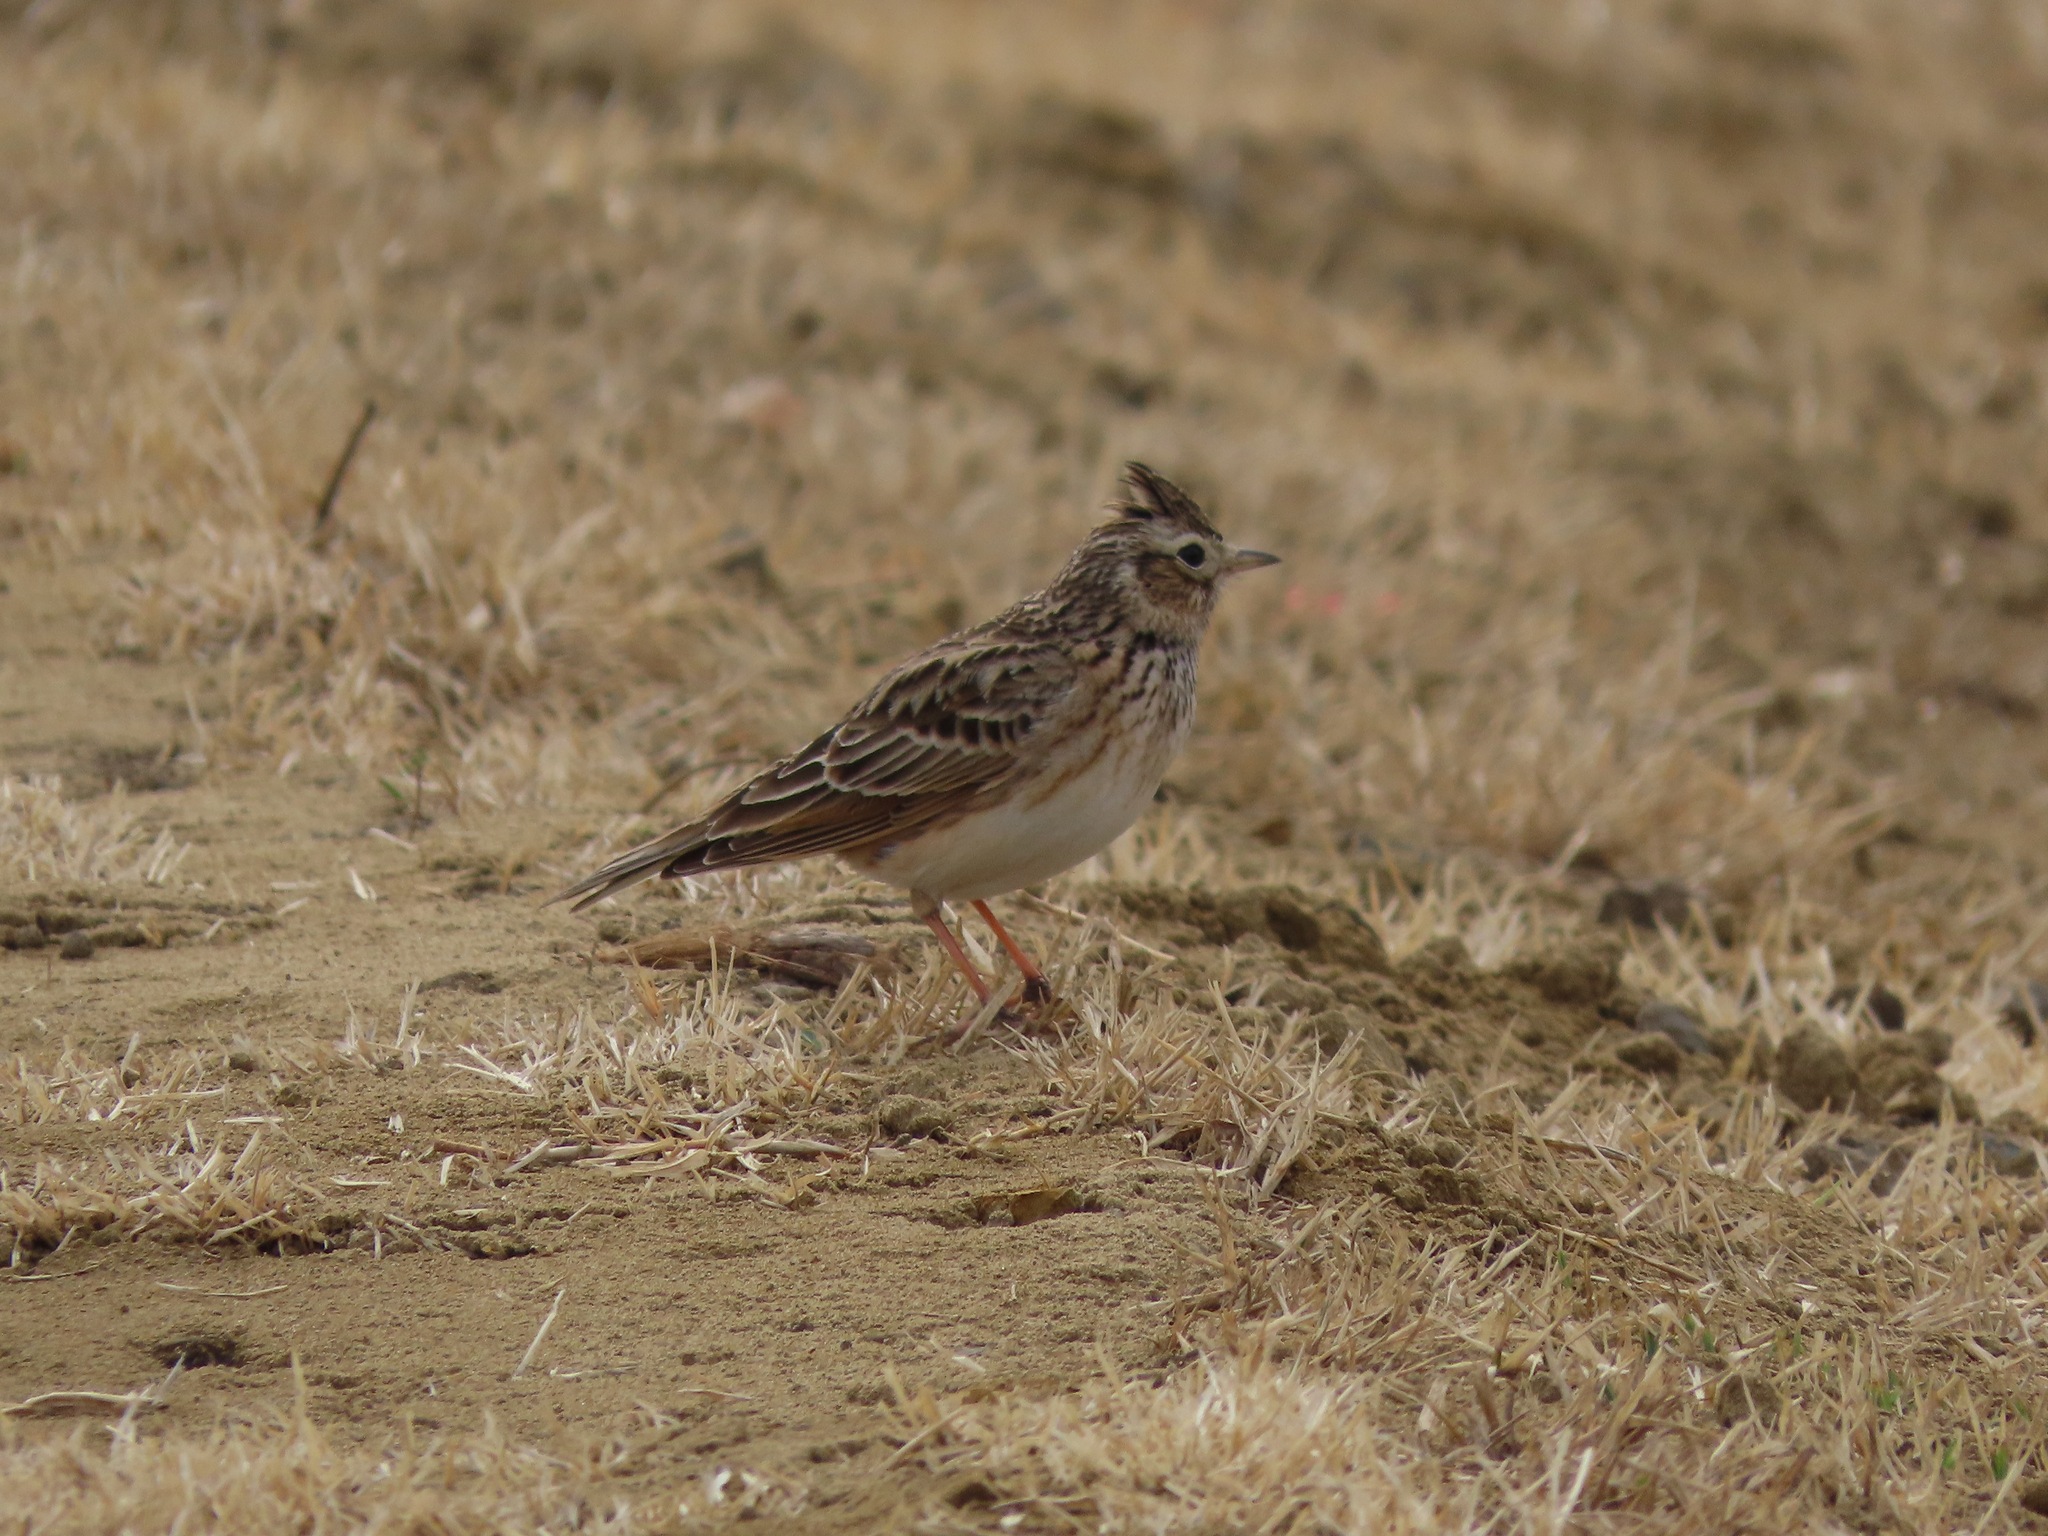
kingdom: Animalia
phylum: Chordata
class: Aves
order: Passeriformes
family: Alaudidae
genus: Alauda
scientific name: Alauda arvensis
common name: Eurasian skylark
